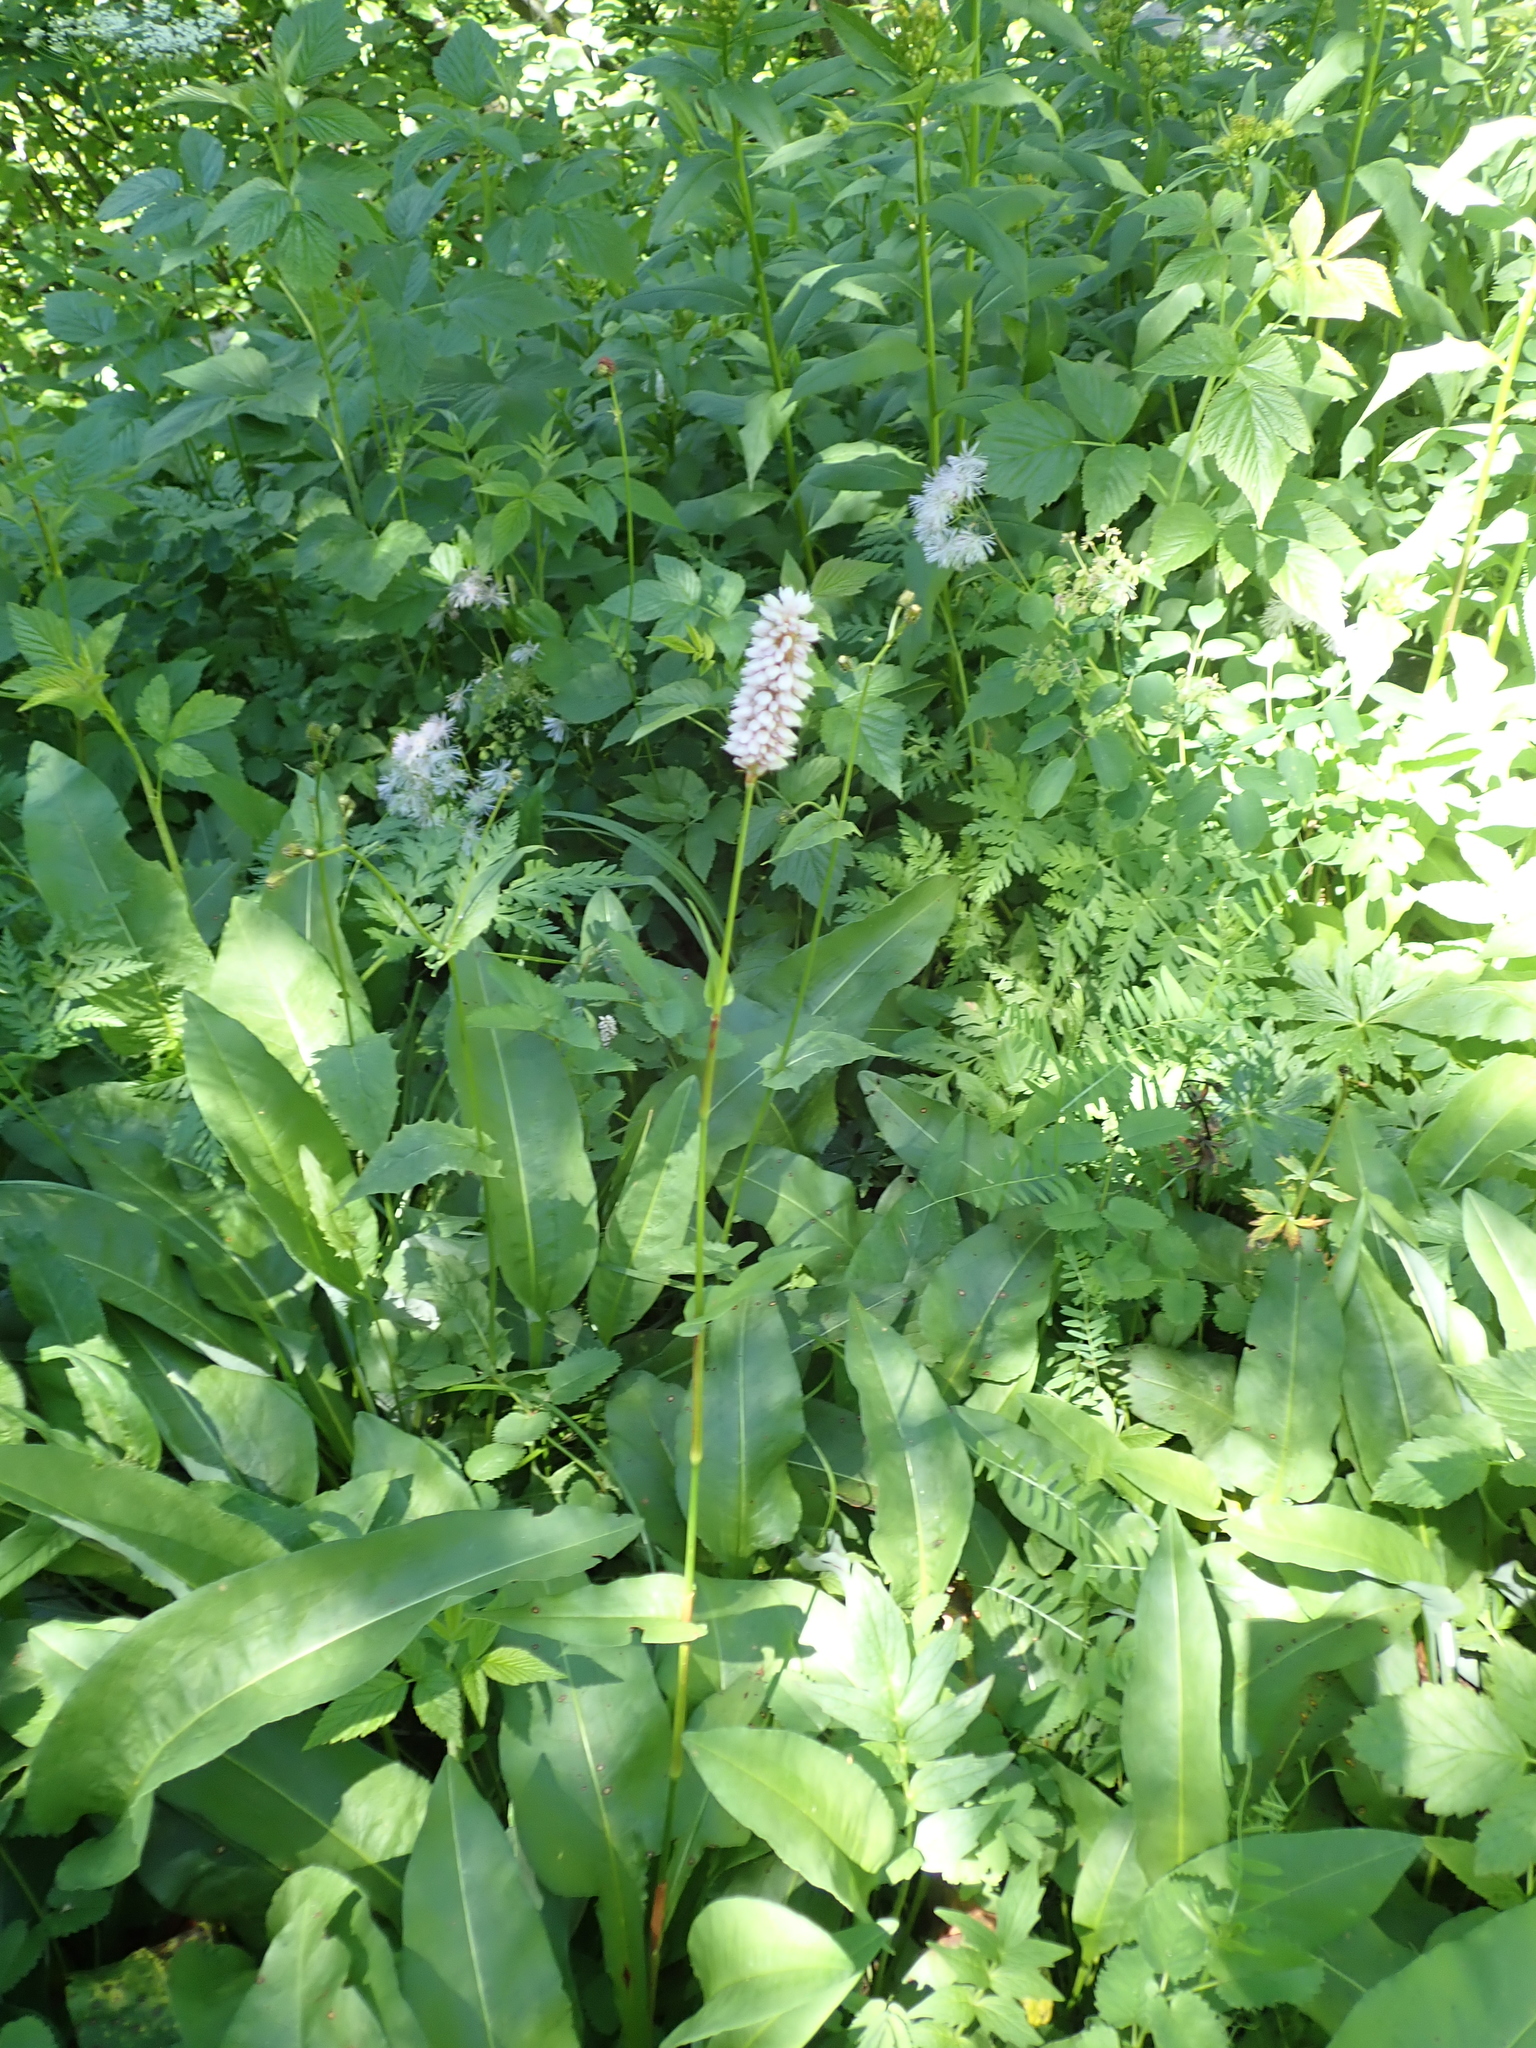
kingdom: Plantae
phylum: Tracheophyta
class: Magnoliopsida
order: Caryophyllales
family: Polygonaceae
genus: Bistorta
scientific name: Bistorta officinalis
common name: Common bistort
